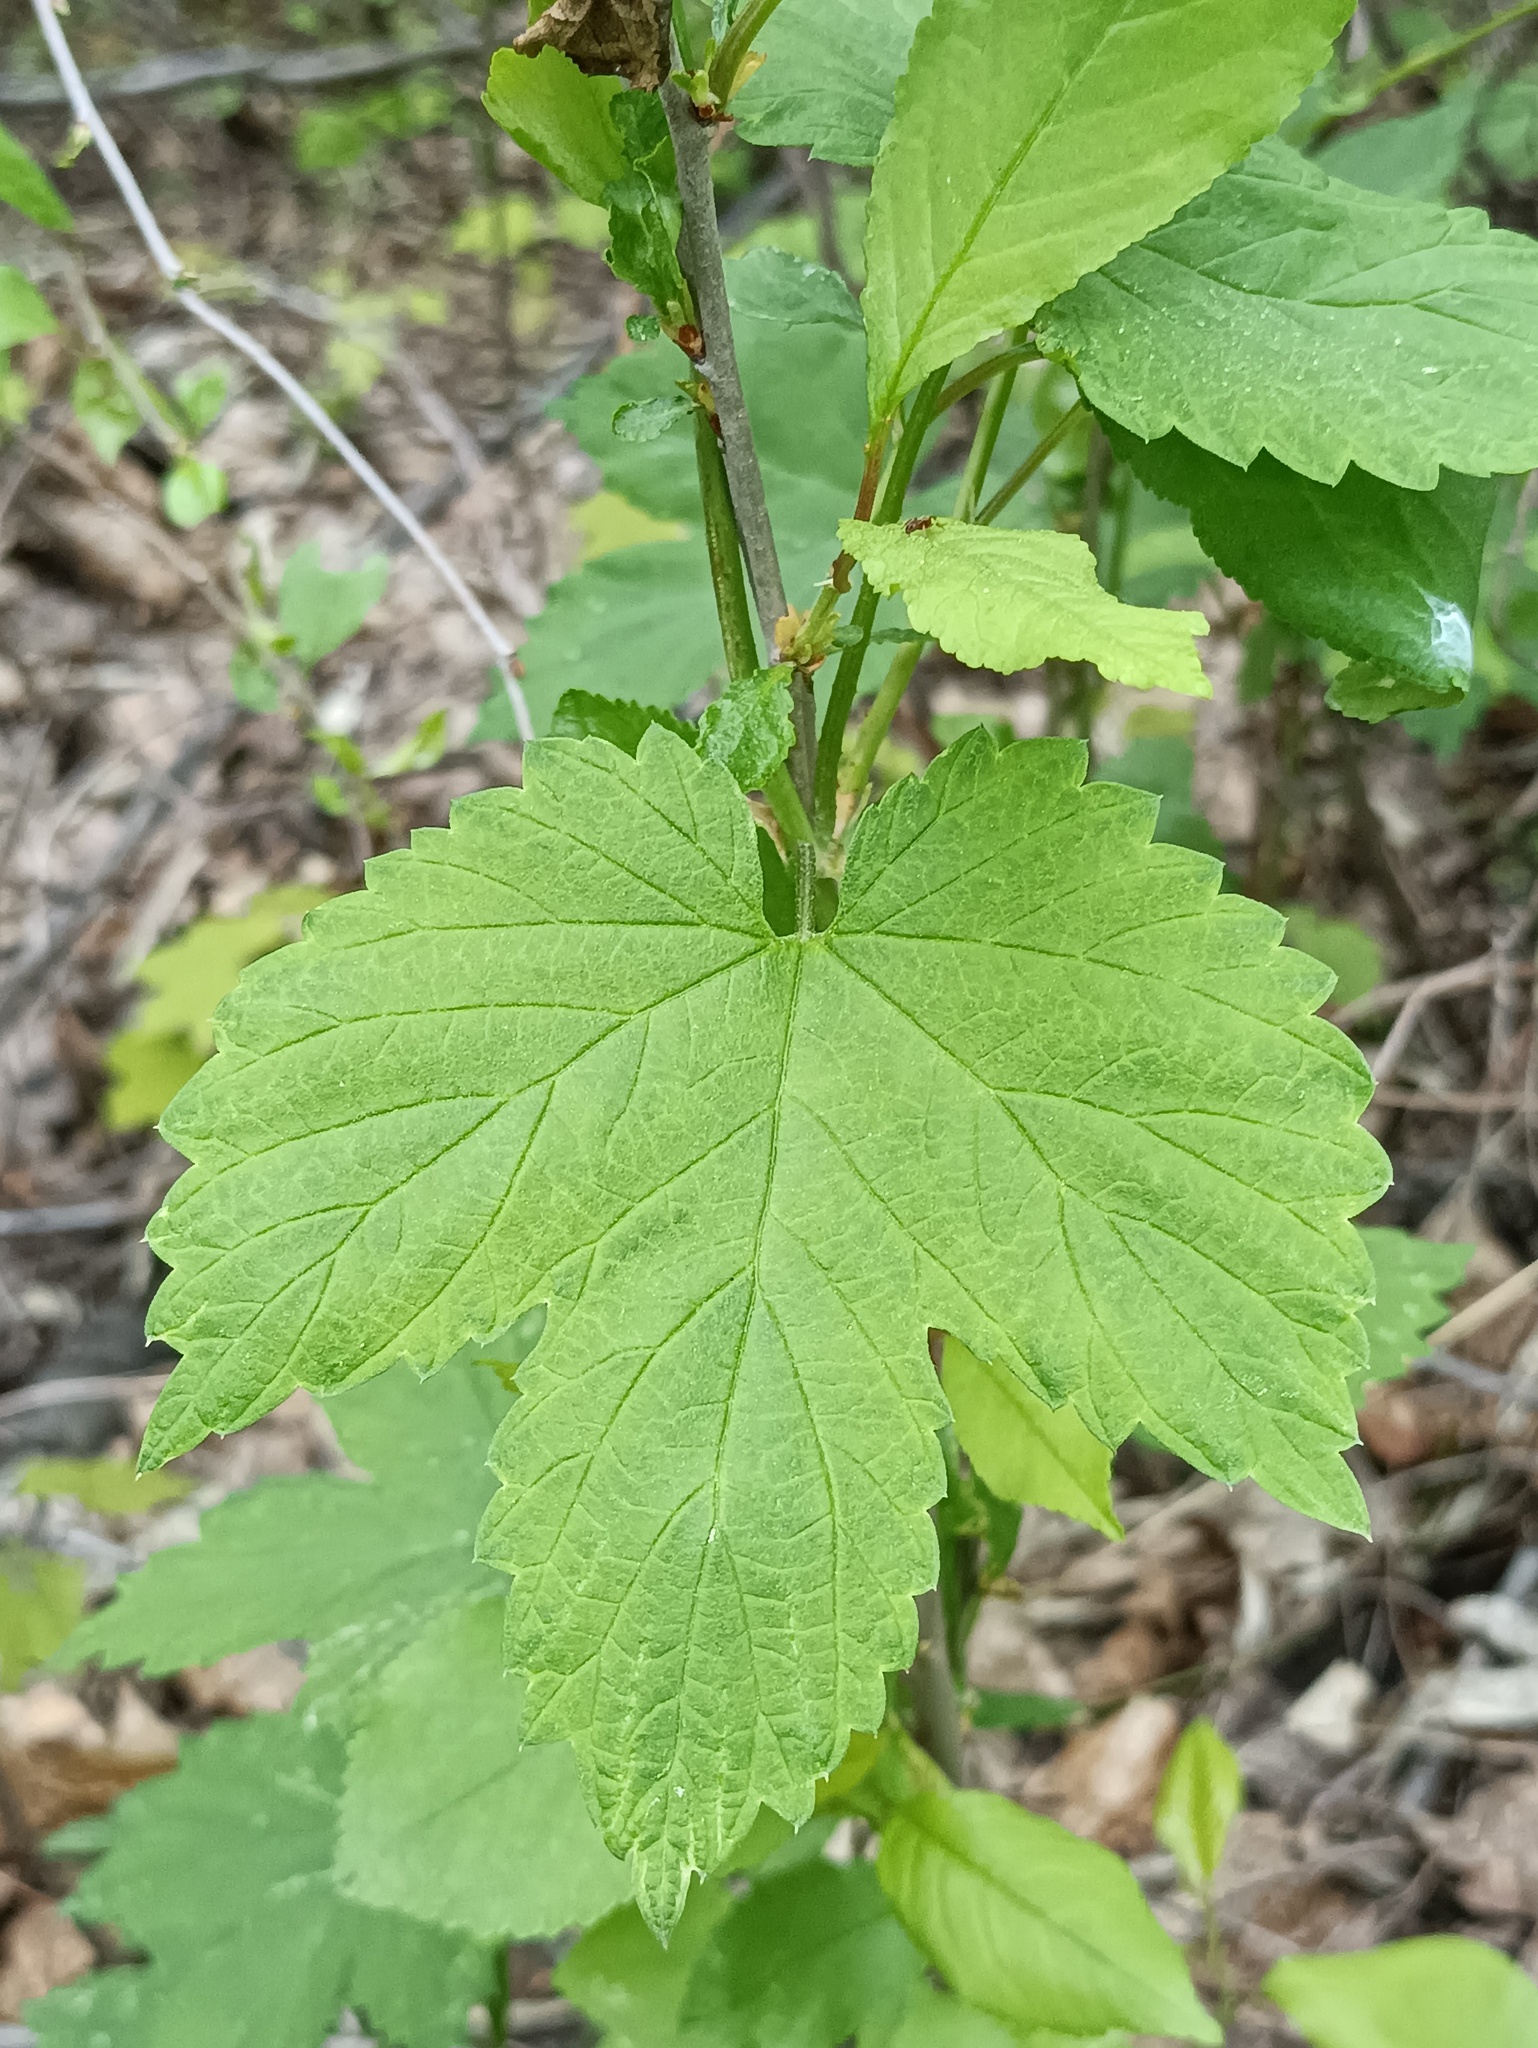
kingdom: Plantae
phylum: Tracheophyta
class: Magnoliopsida
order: Rosales
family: Cannabaceae
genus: Humulus
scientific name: Humulus lupulus
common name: Hop
